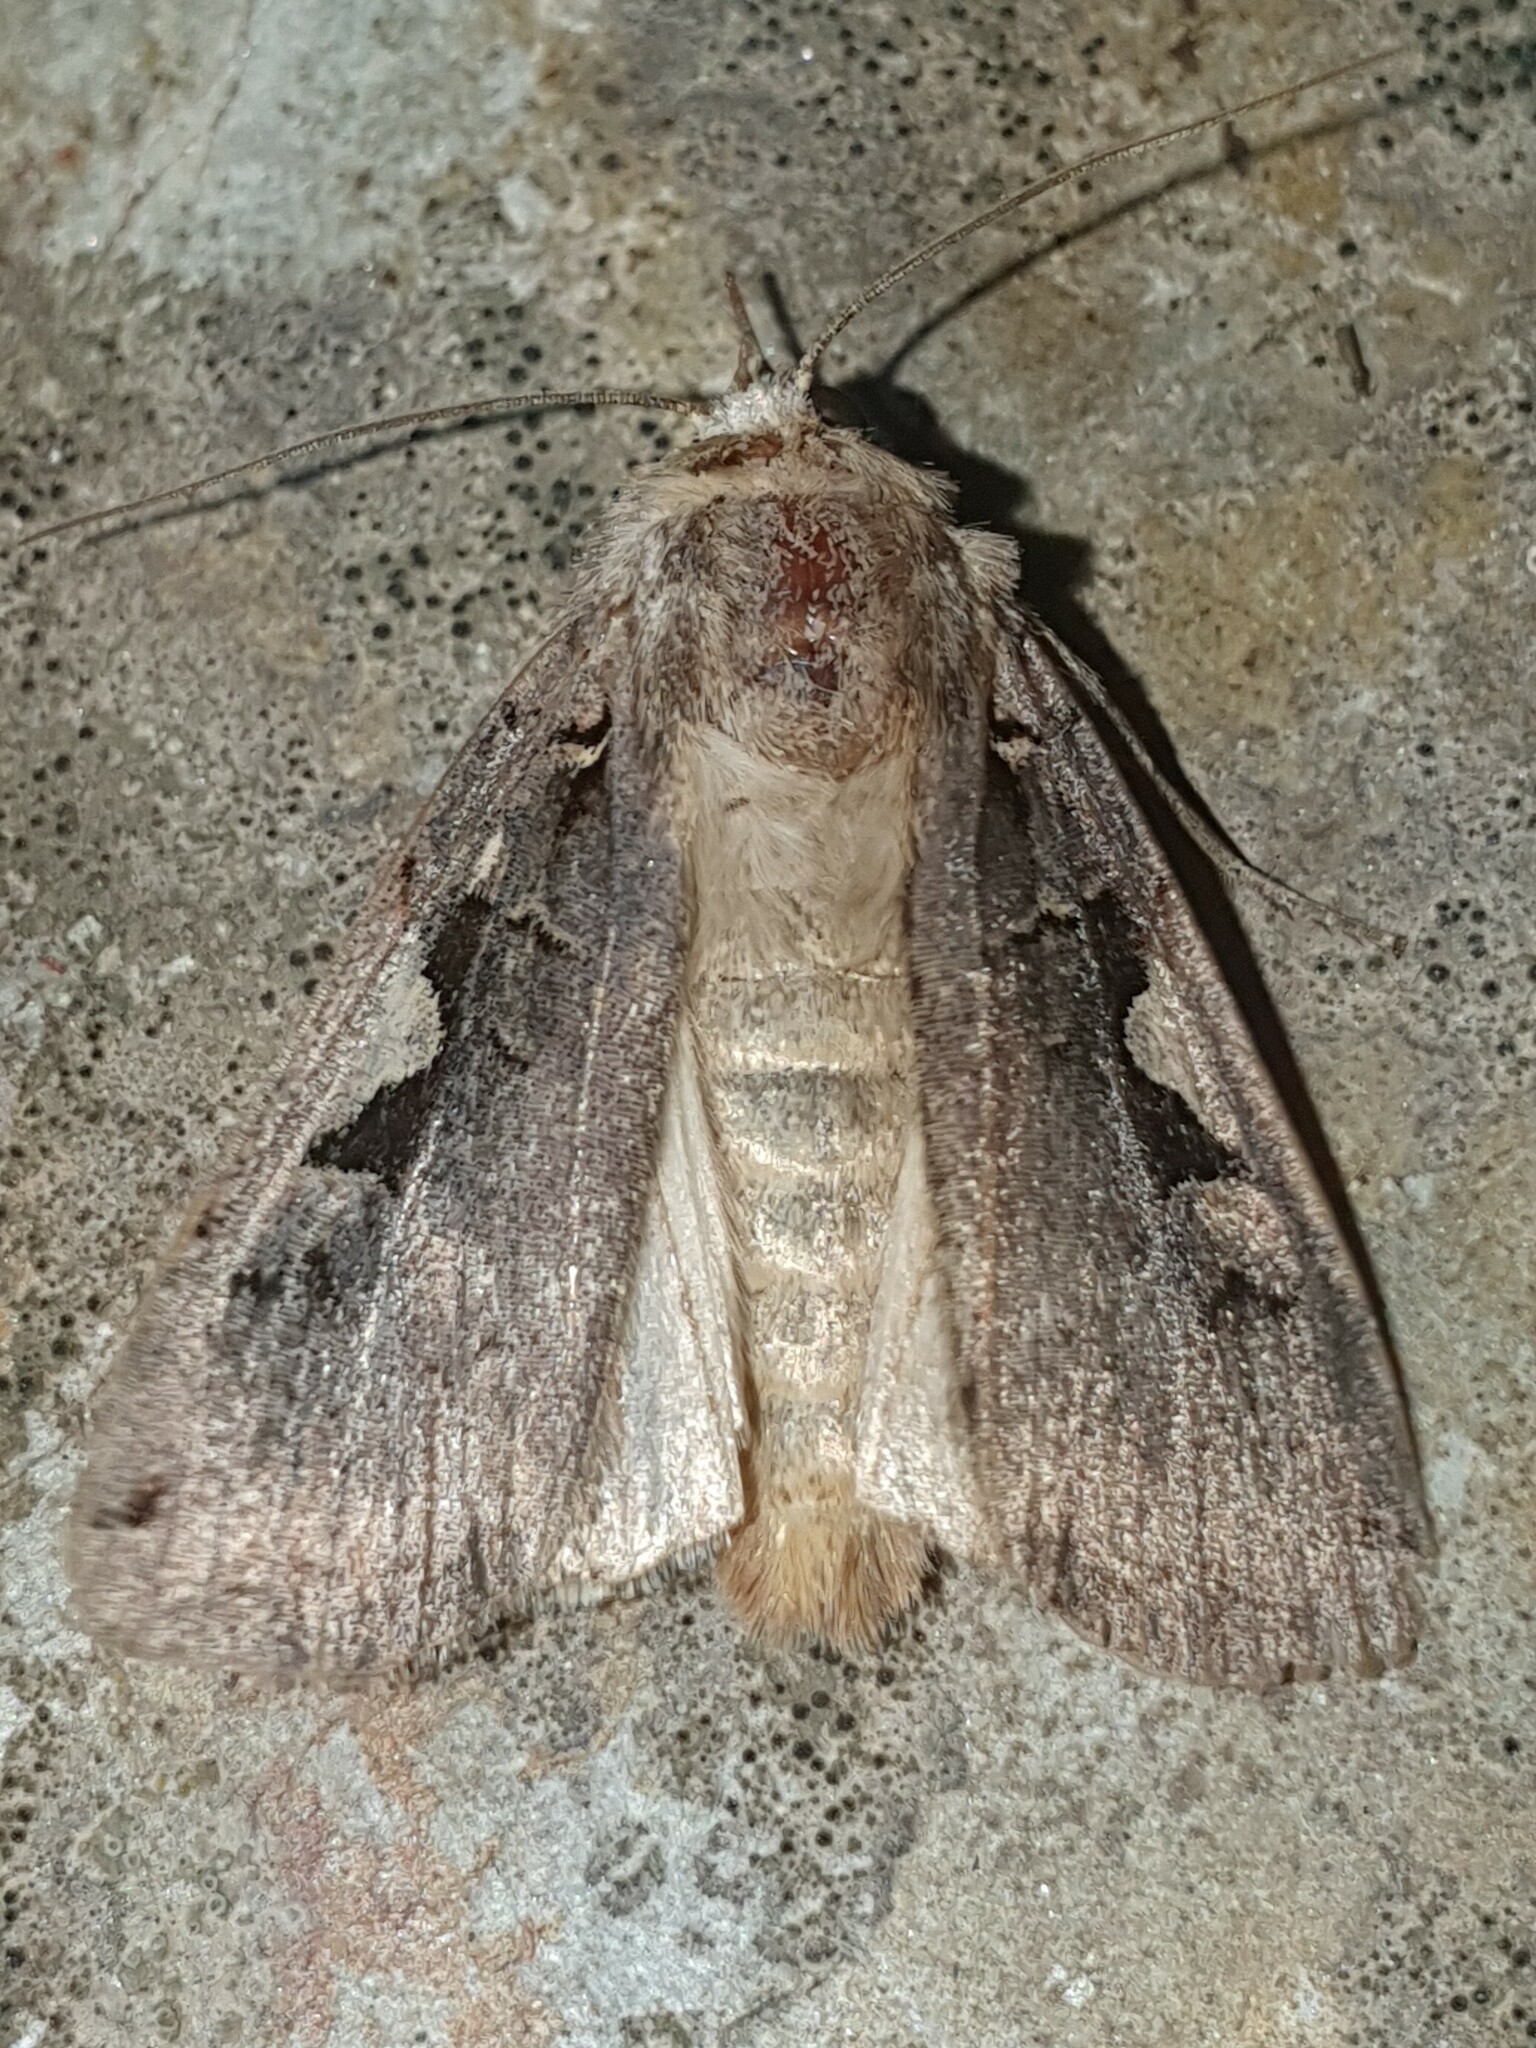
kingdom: Animalia
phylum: Arthropoda
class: Insecta
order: Lepidoptera
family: Noctuidae
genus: Xestia
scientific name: Xestia c-nigrum
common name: Setaceous hebrew character
